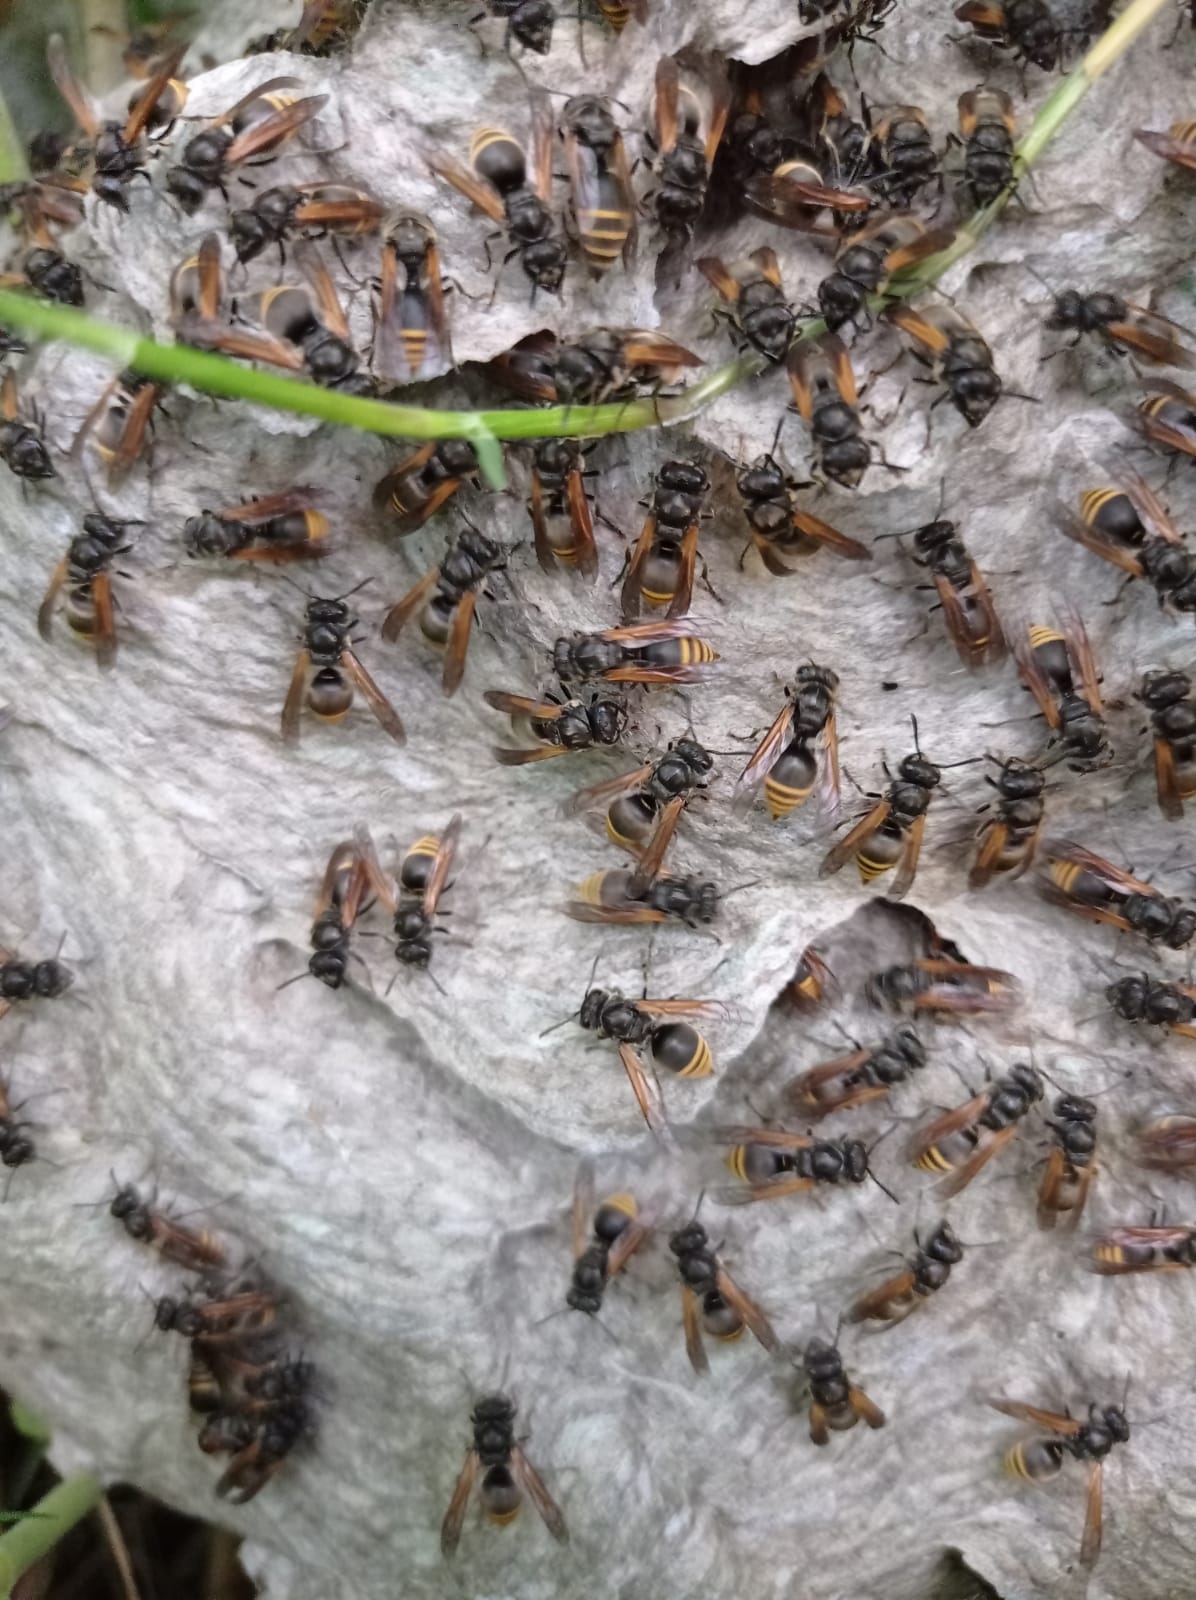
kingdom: Animalia
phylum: Arthropoda
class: Insecta
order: Hymenoptera
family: Vespidae
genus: Brachygastra
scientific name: Brachygastra lecheguana
